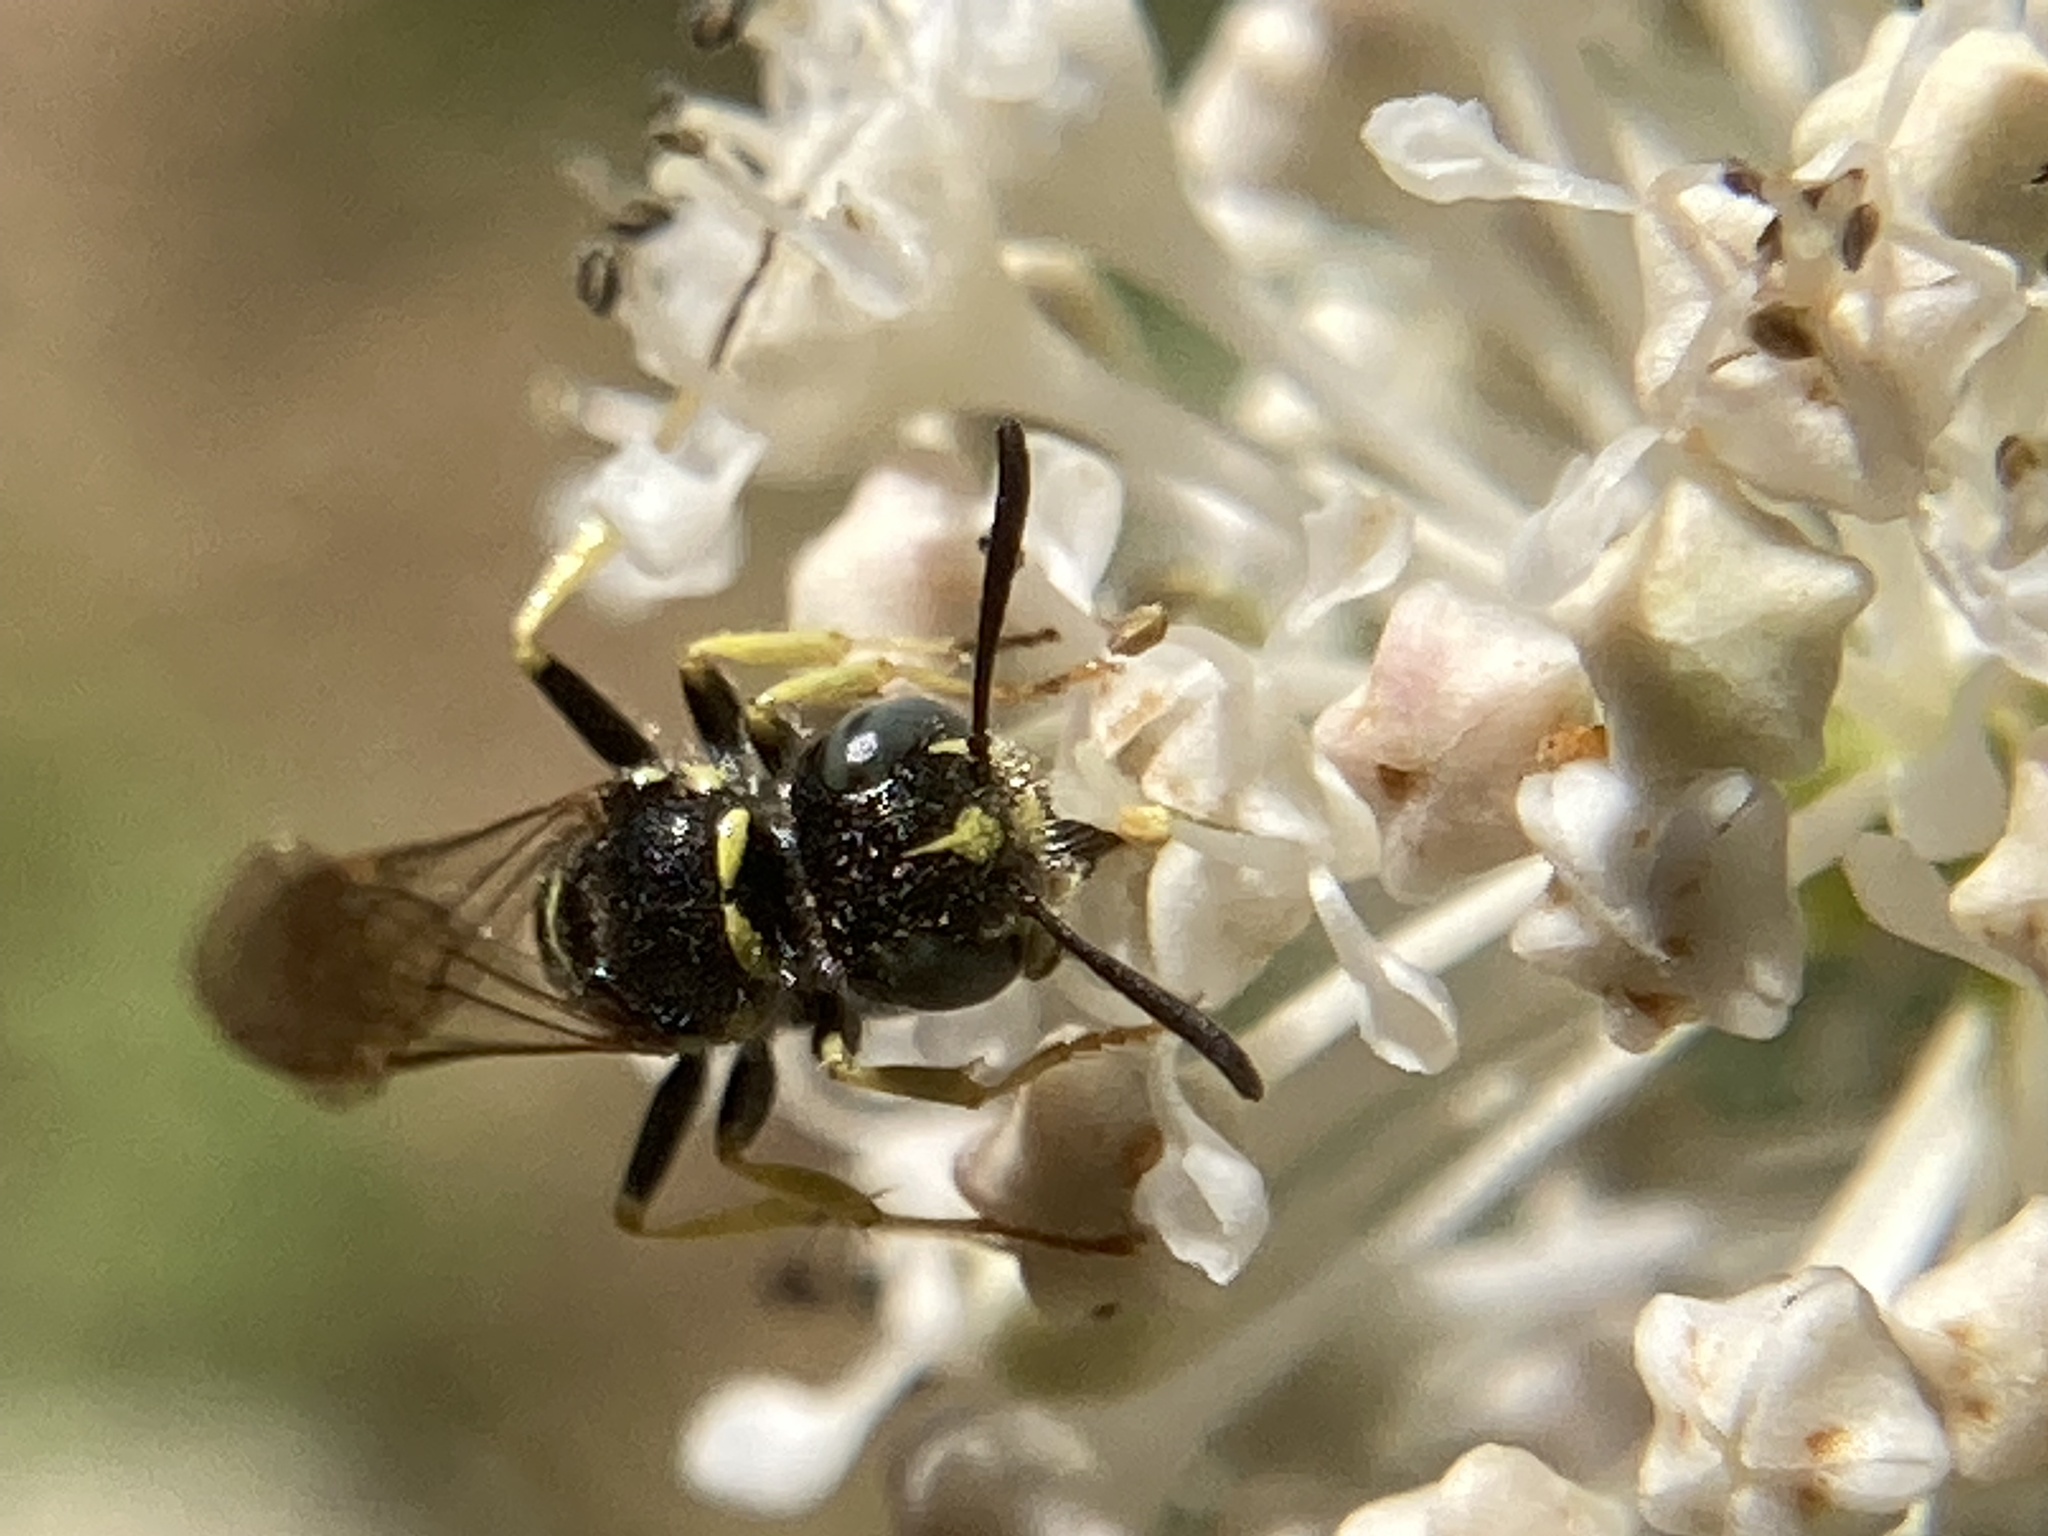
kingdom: Animalia
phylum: Arthropoda
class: Insecta
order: Hymenoptera
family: Crabronidae
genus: Philanthus
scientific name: Philanthus politus
